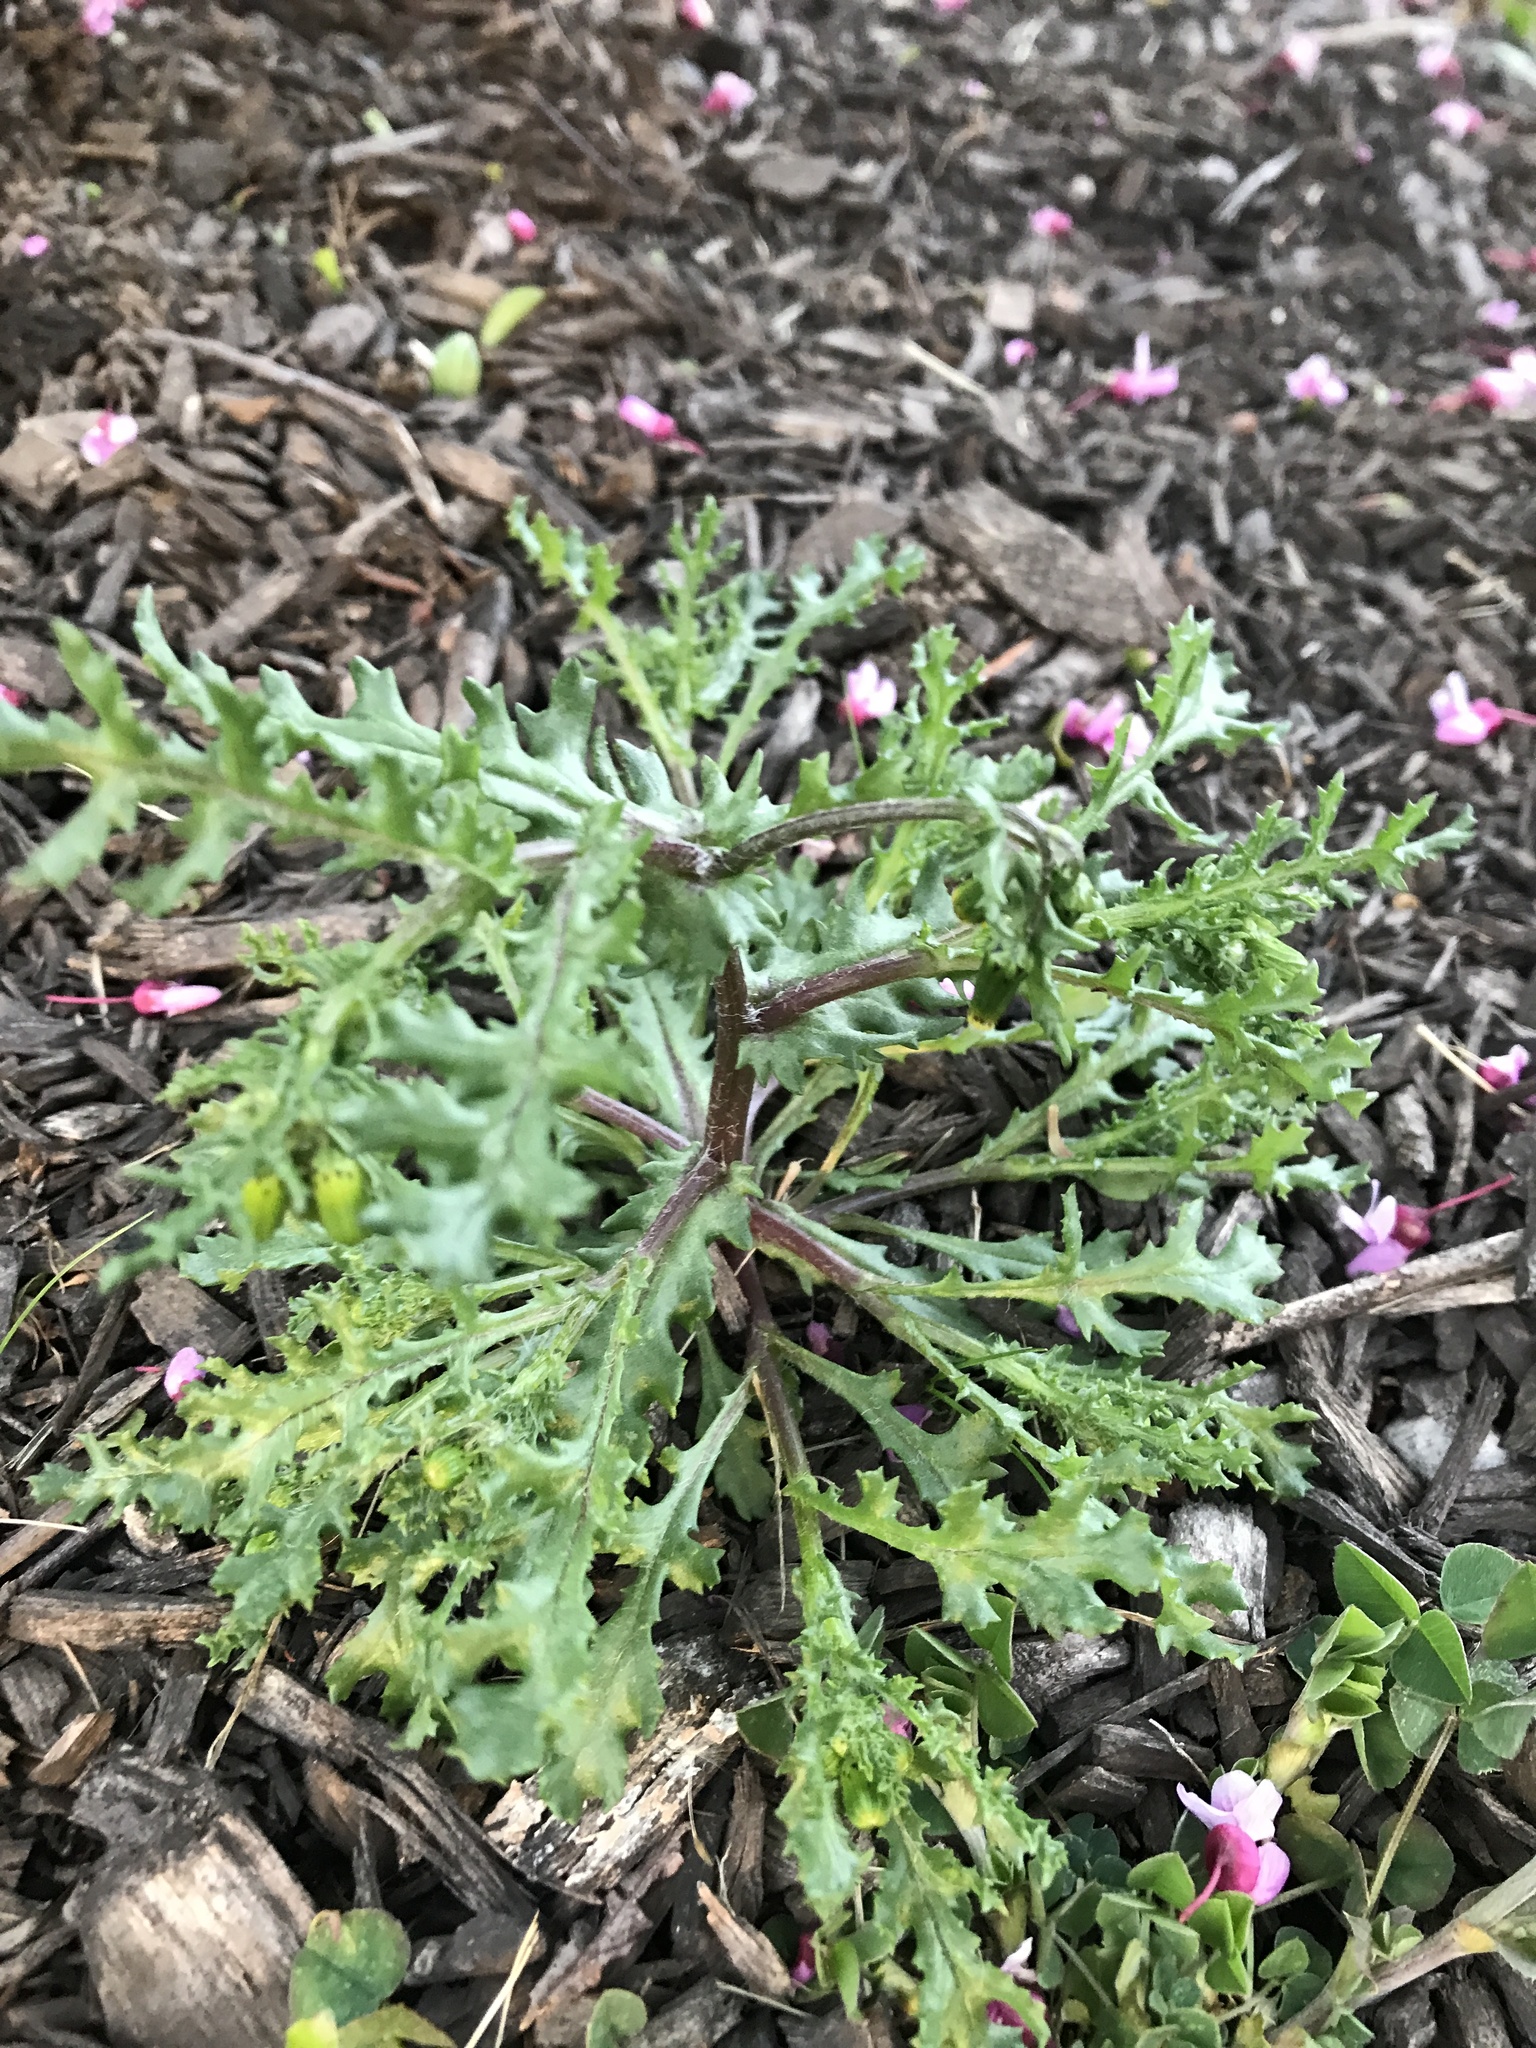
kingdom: Plantae
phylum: Tracheophyta
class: Magnoliopsida
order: Asterales
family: Asteraceae
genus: Senecio
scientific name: Senecio vulgaris
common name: Old-man-in-the-spring
